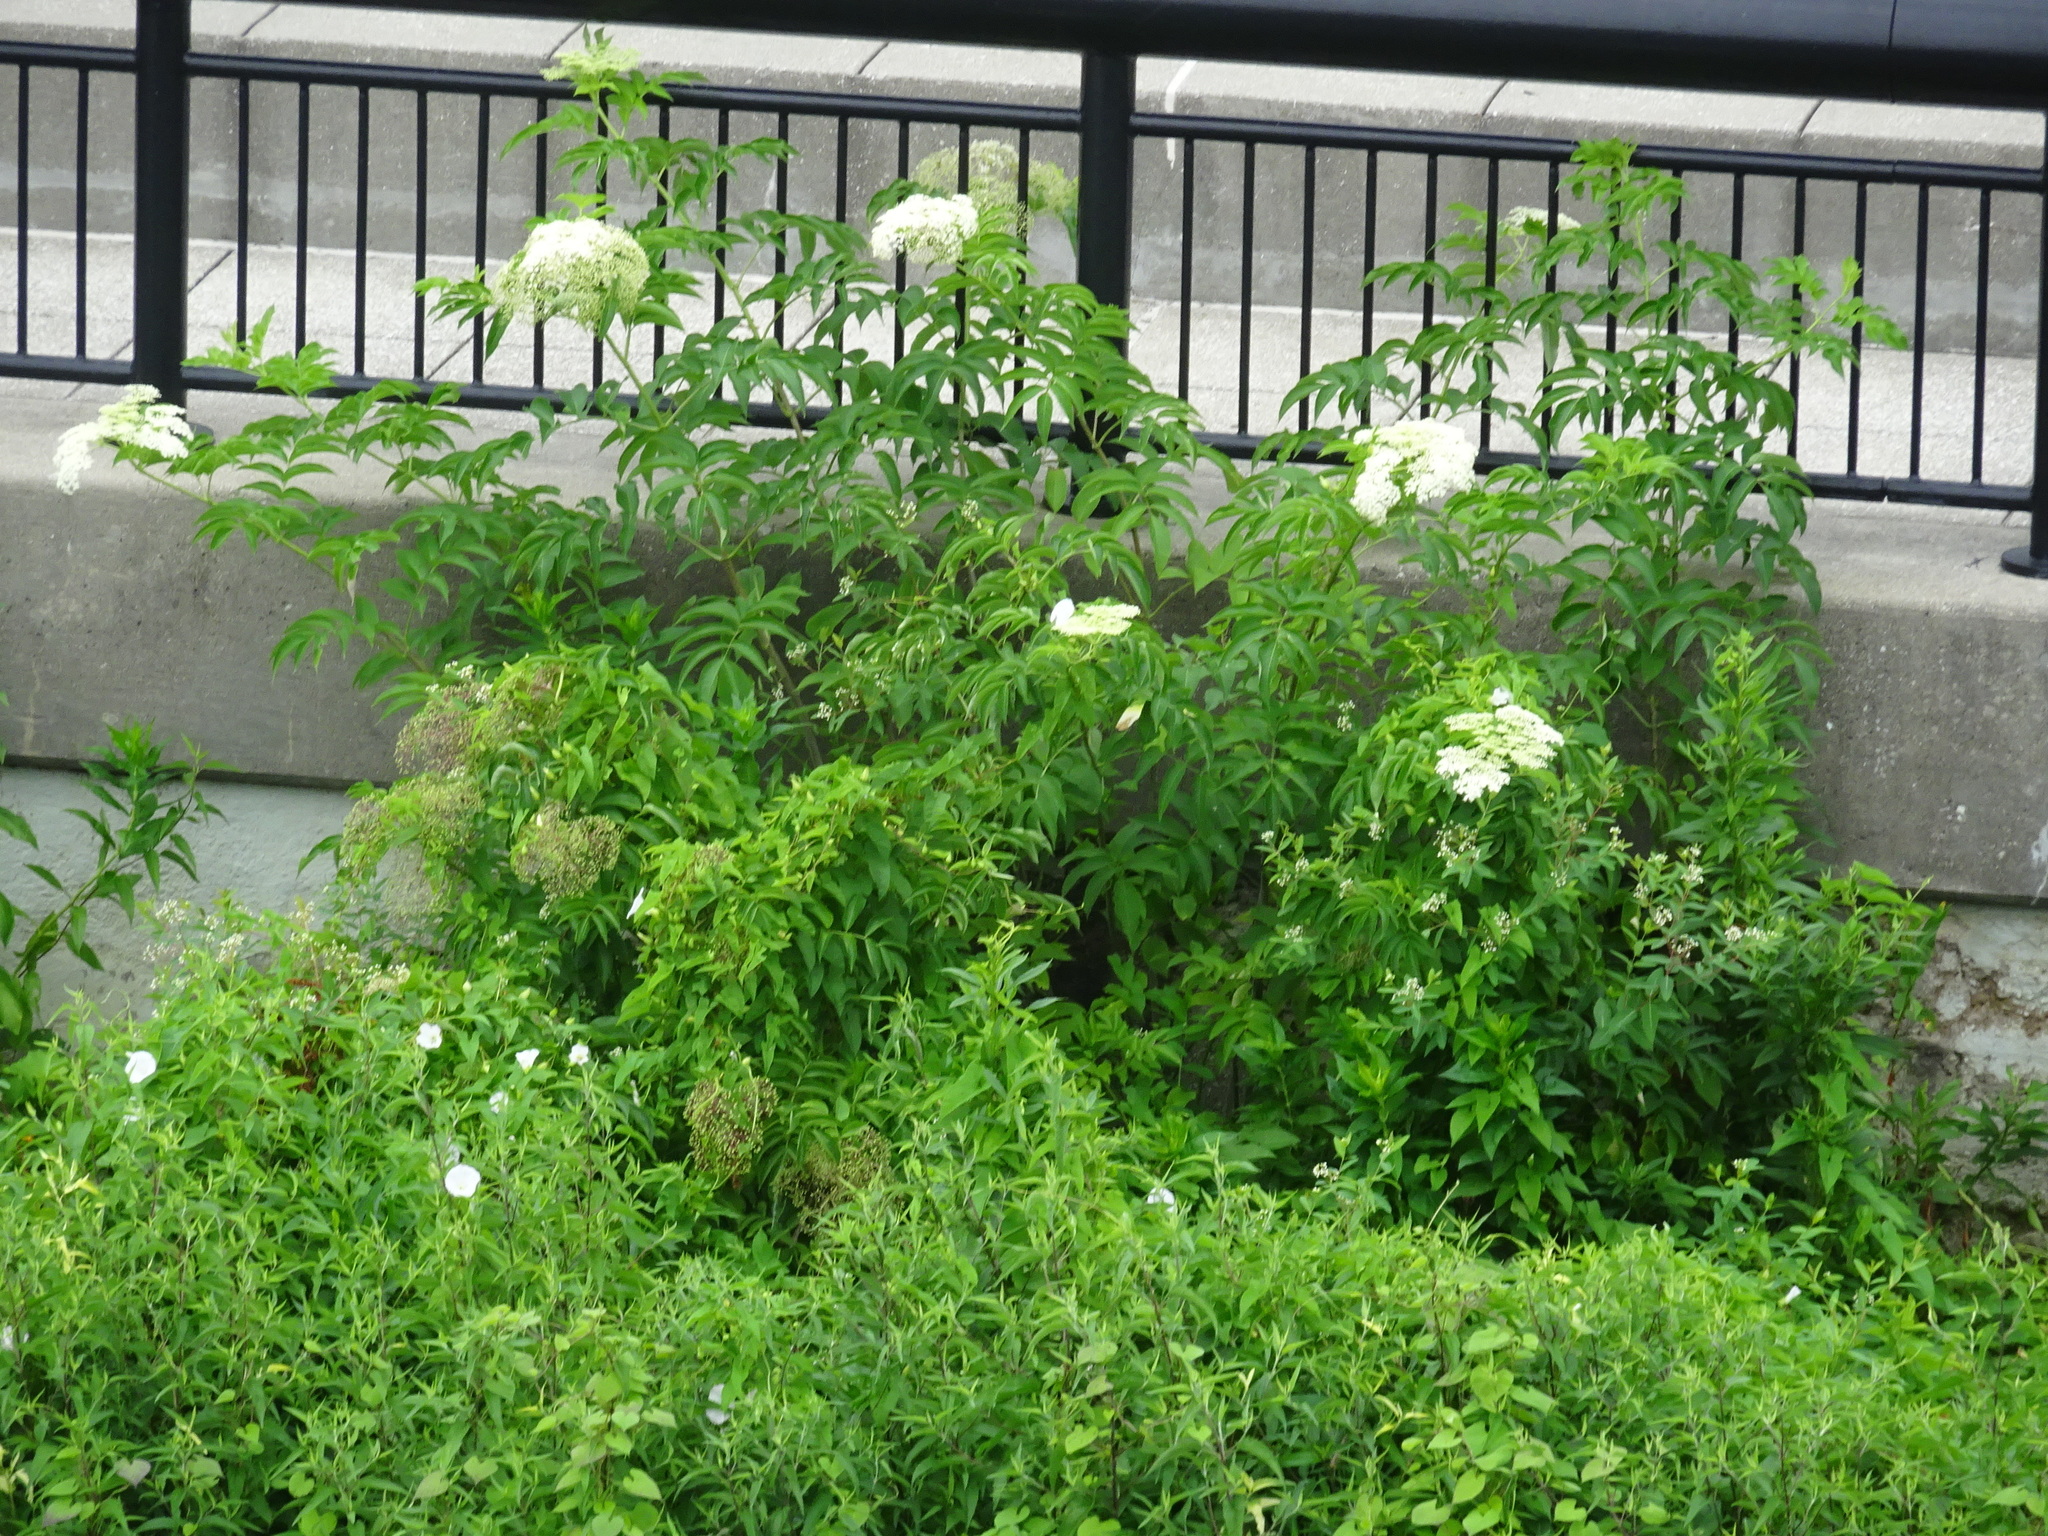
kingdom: Plantae
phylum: Tracheophyta
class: Magnoliopsida
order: Dipsacales
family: Viburnaceae
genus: Sambucus
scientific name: Sambucus canadensis
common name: American elder
